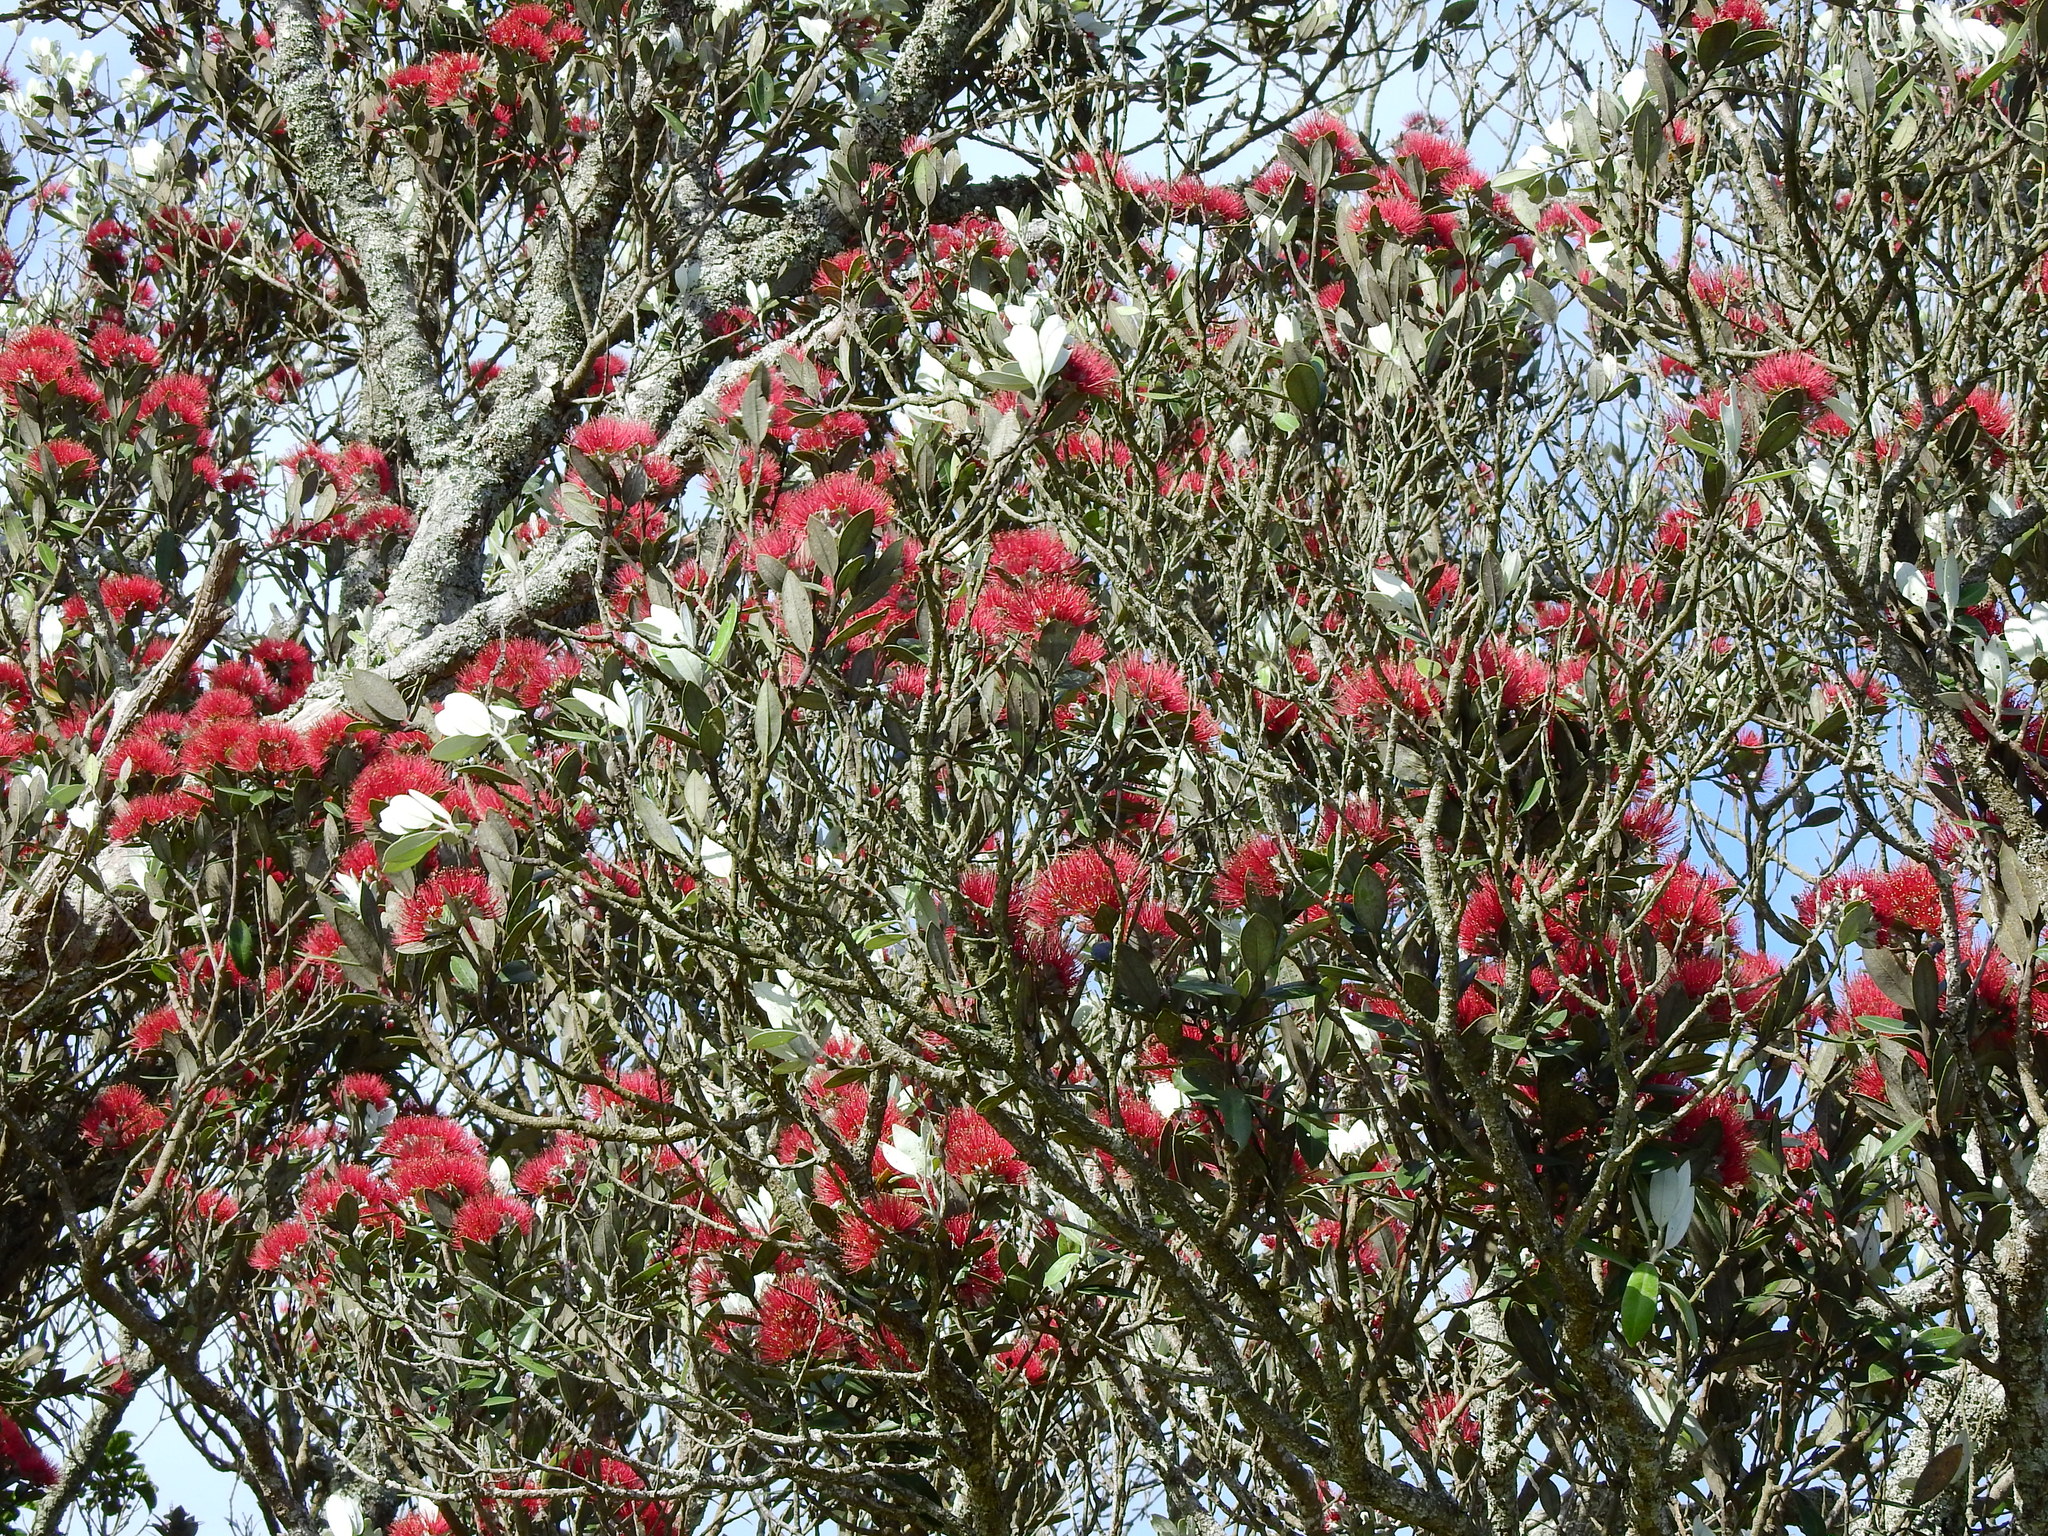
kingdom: Plantae
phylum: Tracheophyta
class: Magnoliopsida
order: Myrtales
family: Myrtaceae
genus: Metrosideros
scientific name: Metrosideros excelsa
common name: New zealand christmastree
